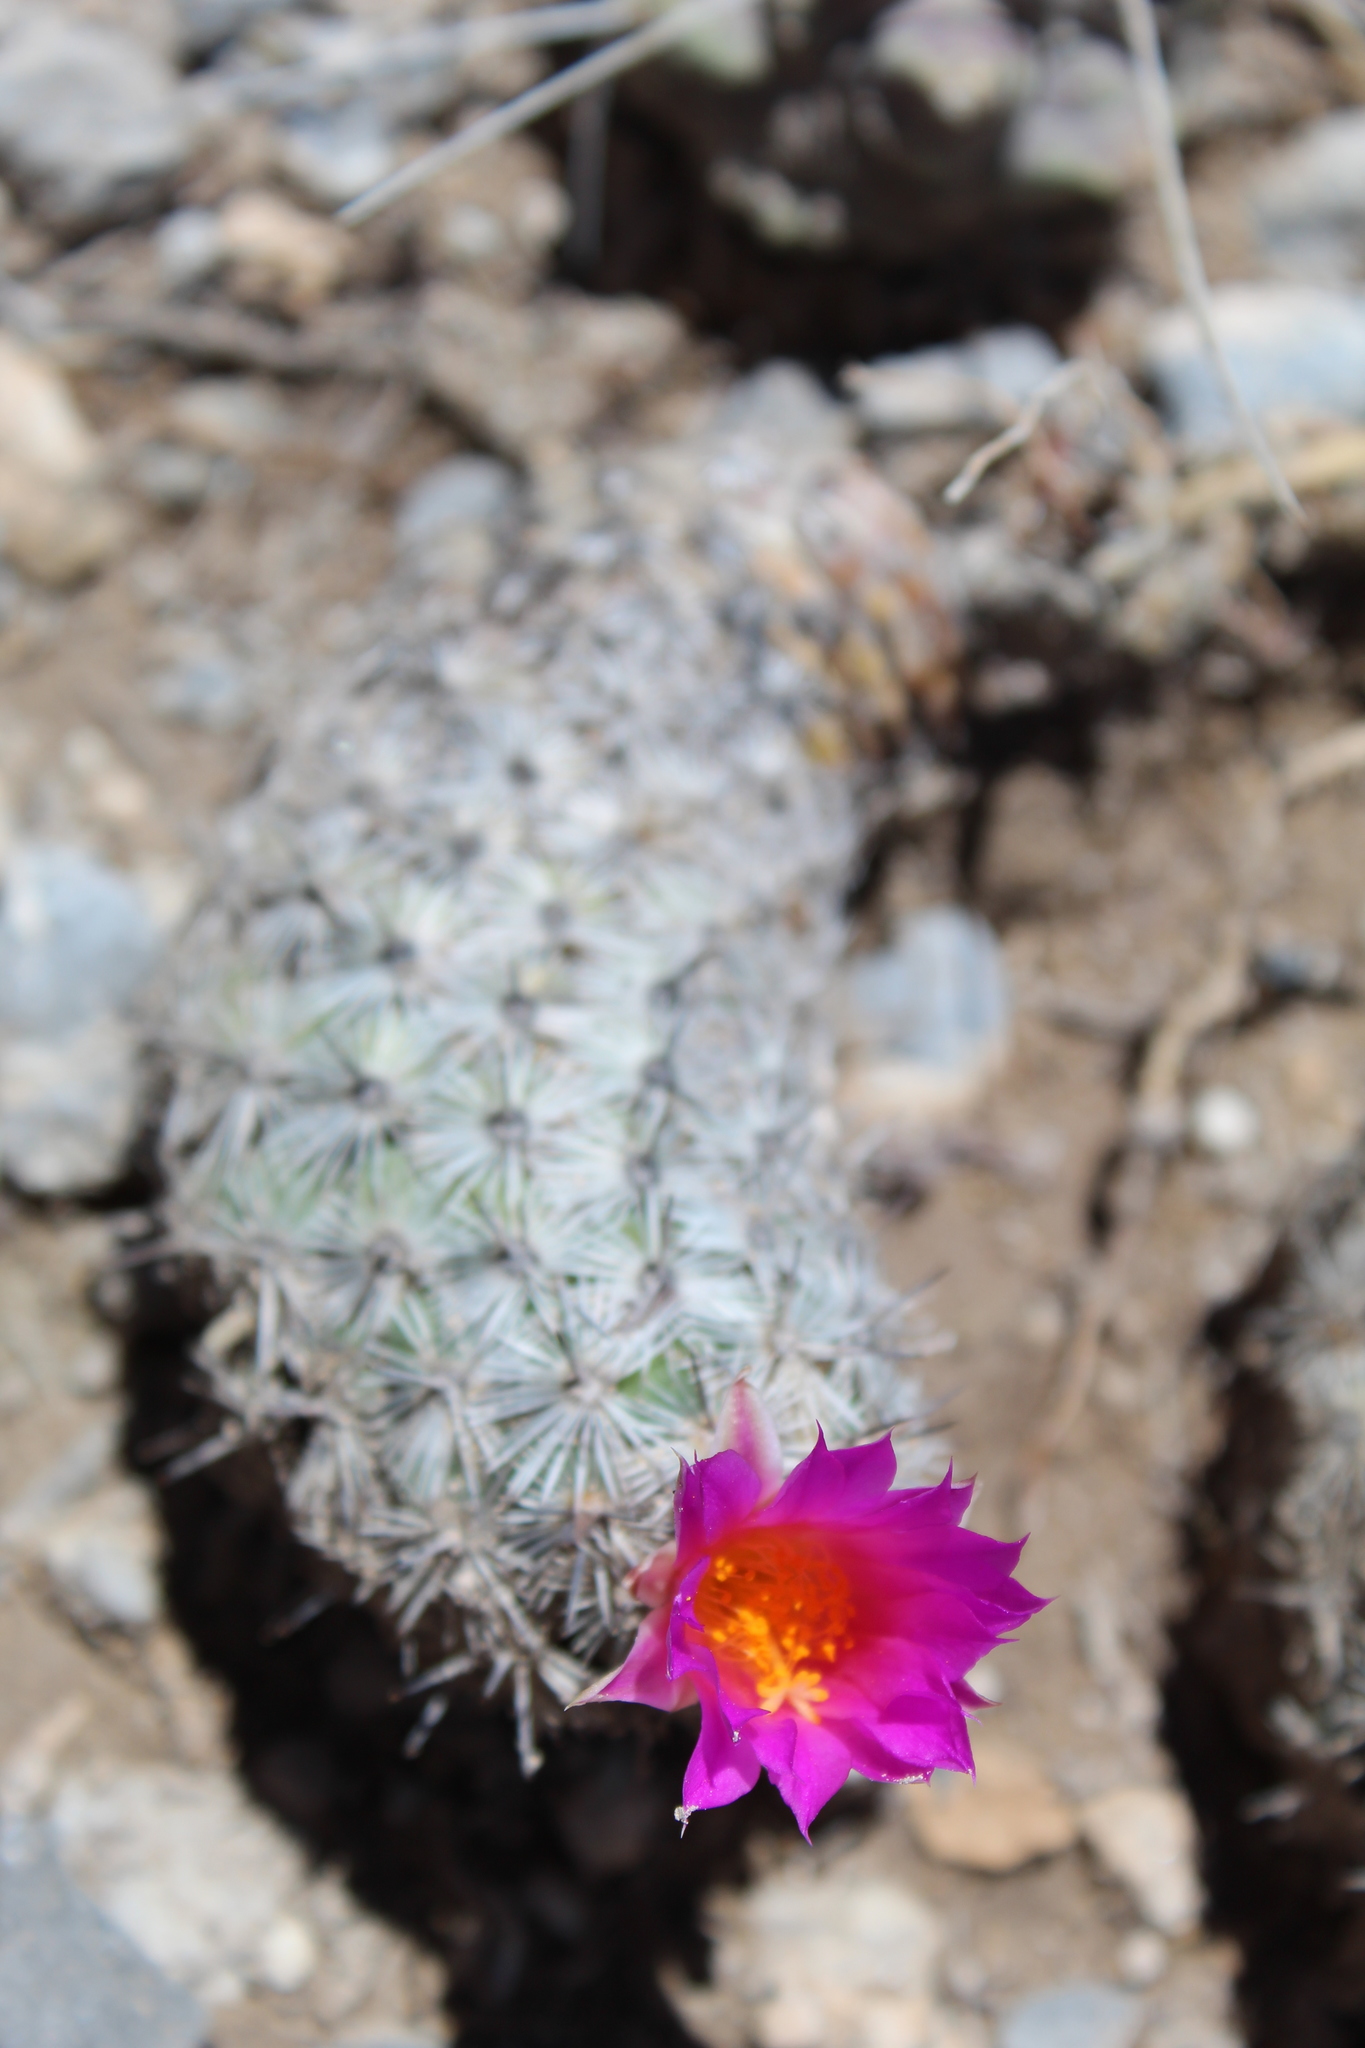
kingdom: Plantae
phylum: Tracheophyta
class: Magnoliopsida
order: Caryophyllales
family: Cactaceae
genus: Cochemiea
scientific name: Cochemiea conoidea
